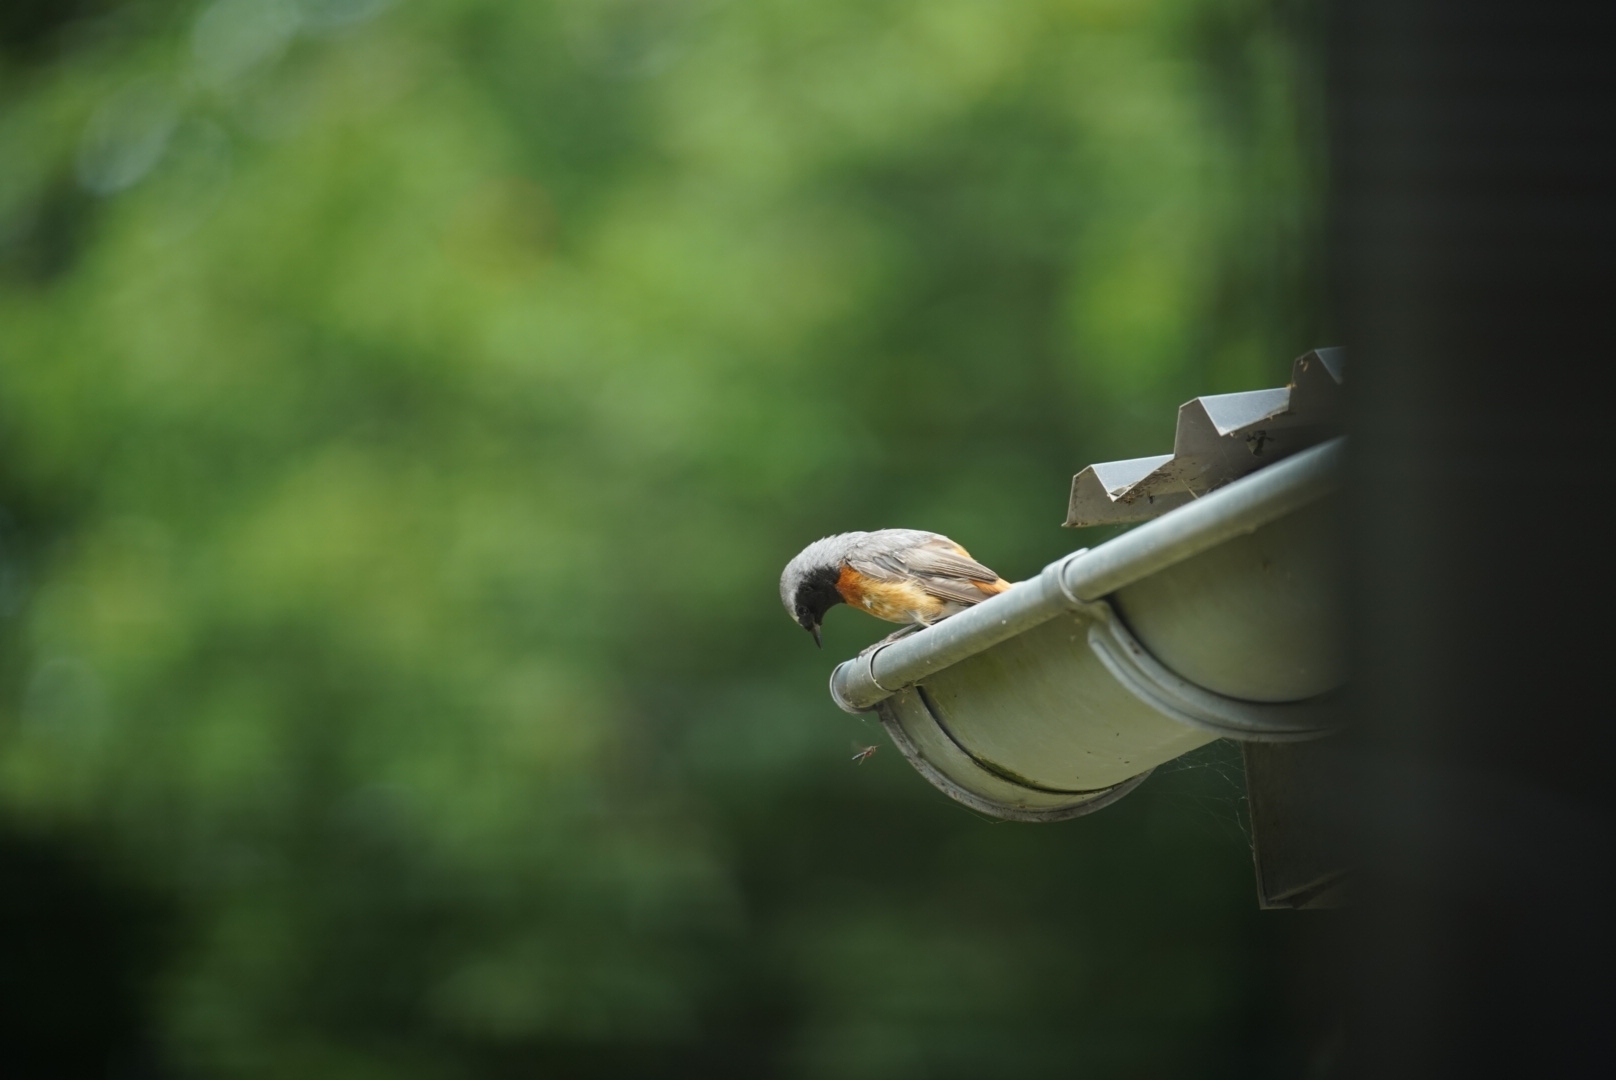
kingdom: Animalia
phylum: Chordata
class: Aves
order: Passeriformes
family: Muscicapidae
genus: Phoenicurus
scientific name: Phoenicurus phoenicurus
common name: Common redstart
